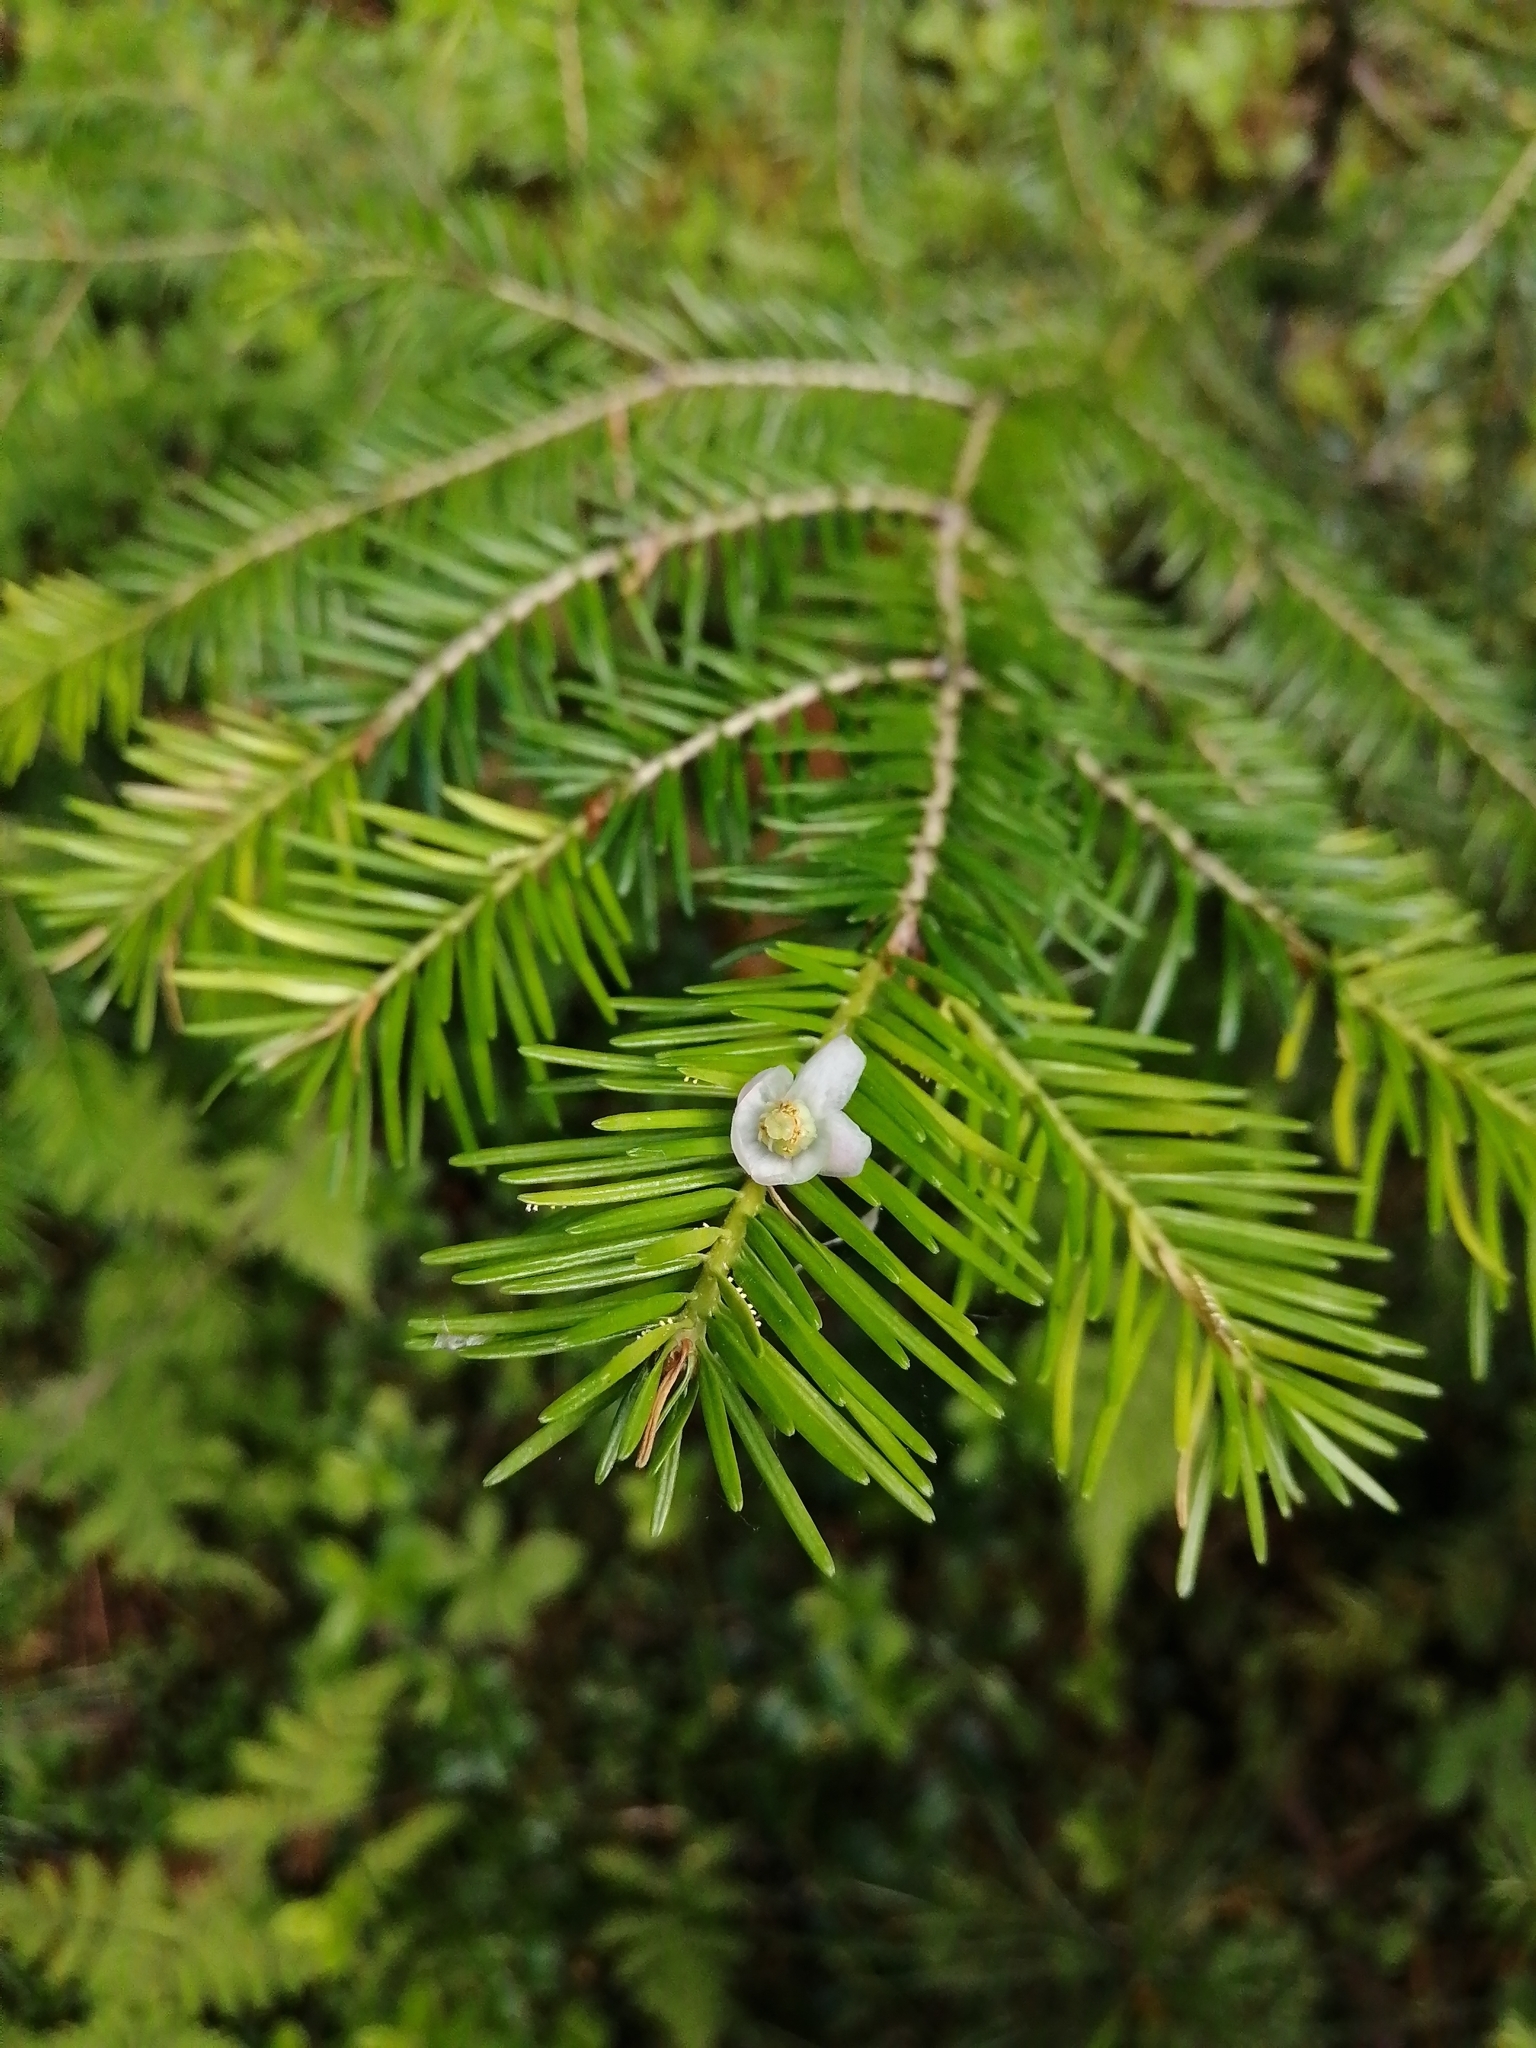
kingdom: Plantae
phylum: Tracheophyta
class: Magnoliopsida
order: Ericales
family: Ericaceae
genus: Pyrola
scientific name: Pyrola minor
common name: Common wintergreen
